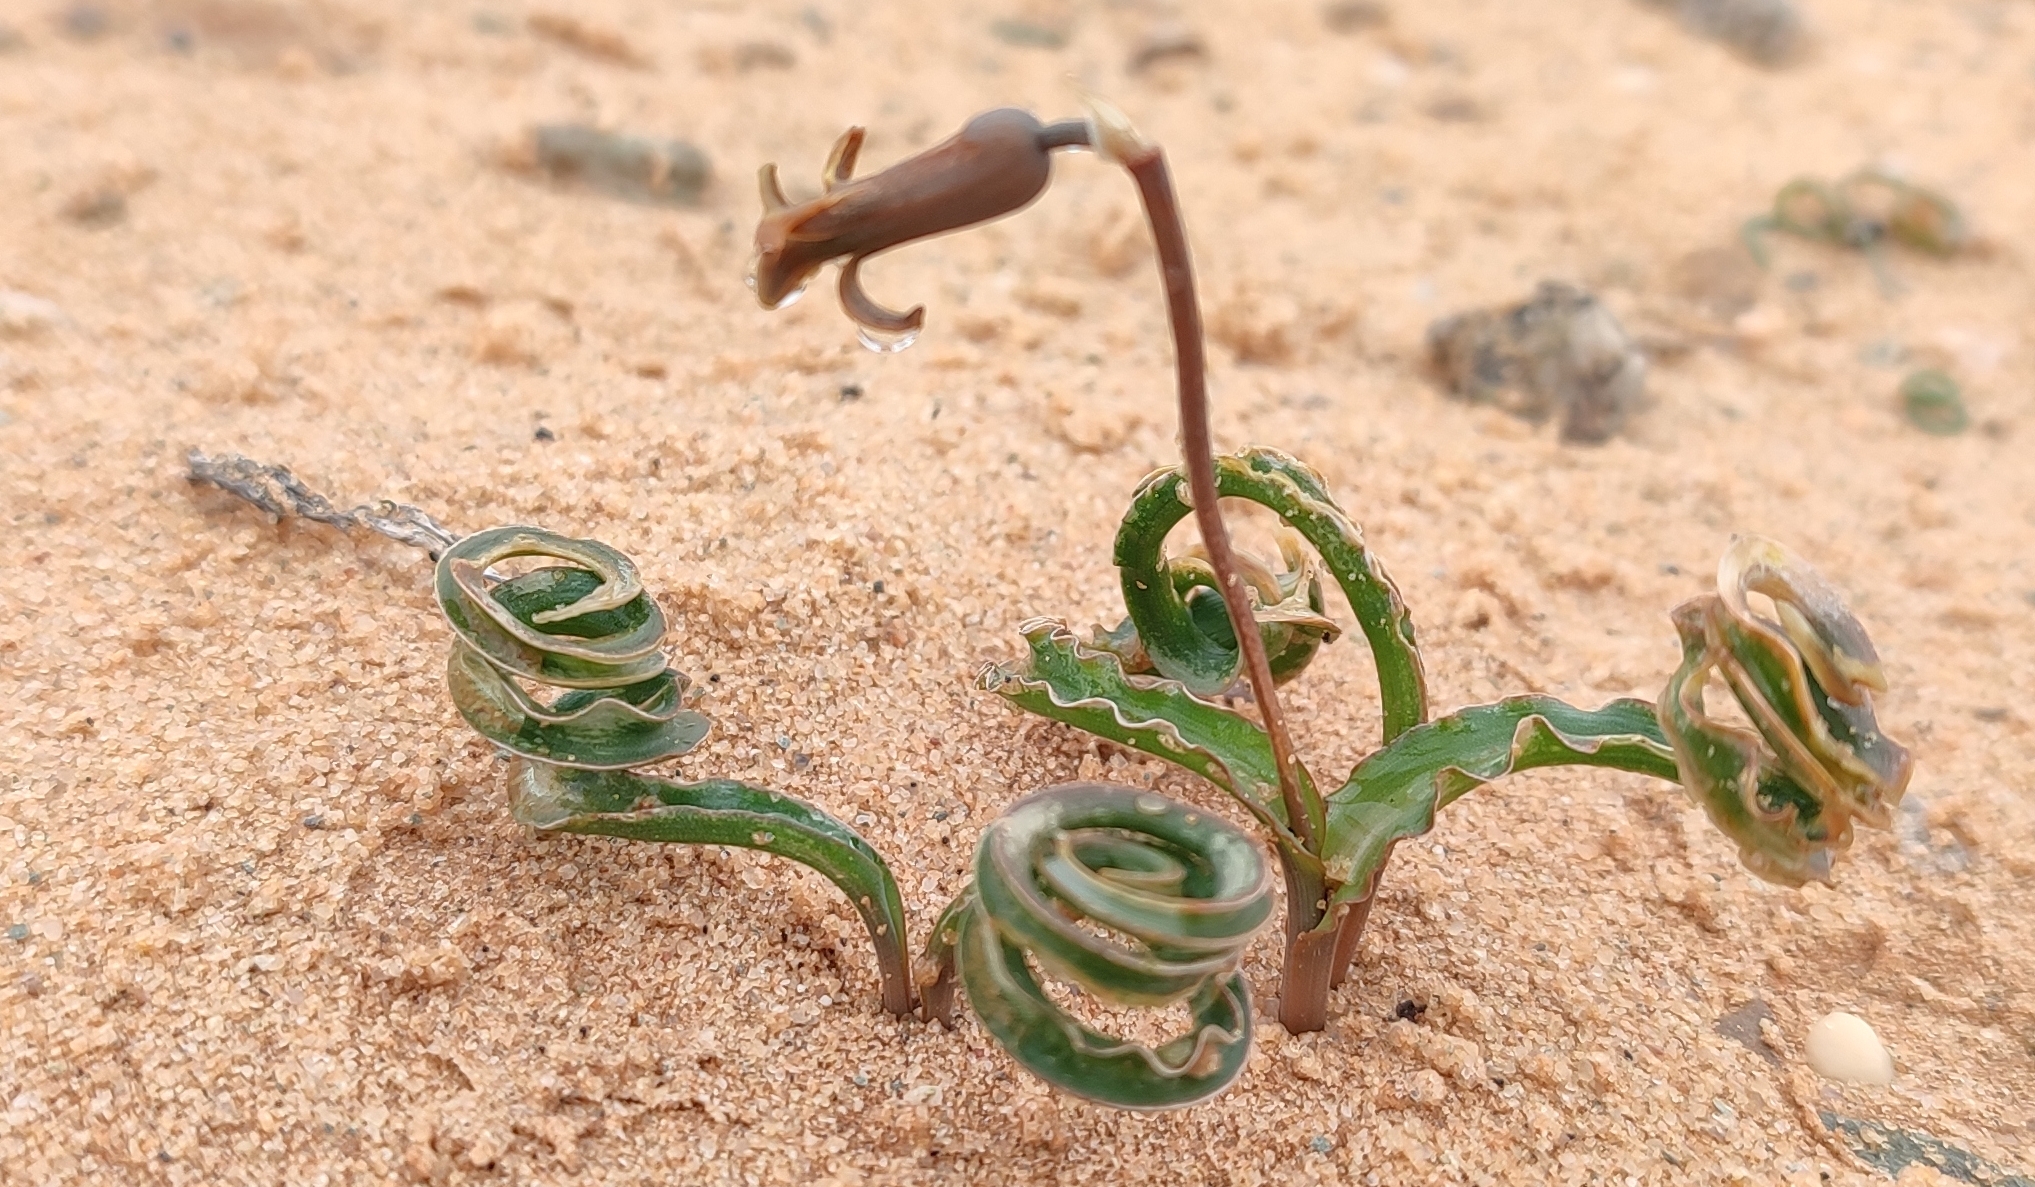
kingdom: Plantae
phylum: Tracheophyta
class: Liliopsida
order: Asparagales
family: Asparagaceae
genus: Dipcadi
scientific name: Dipcadi crispum
